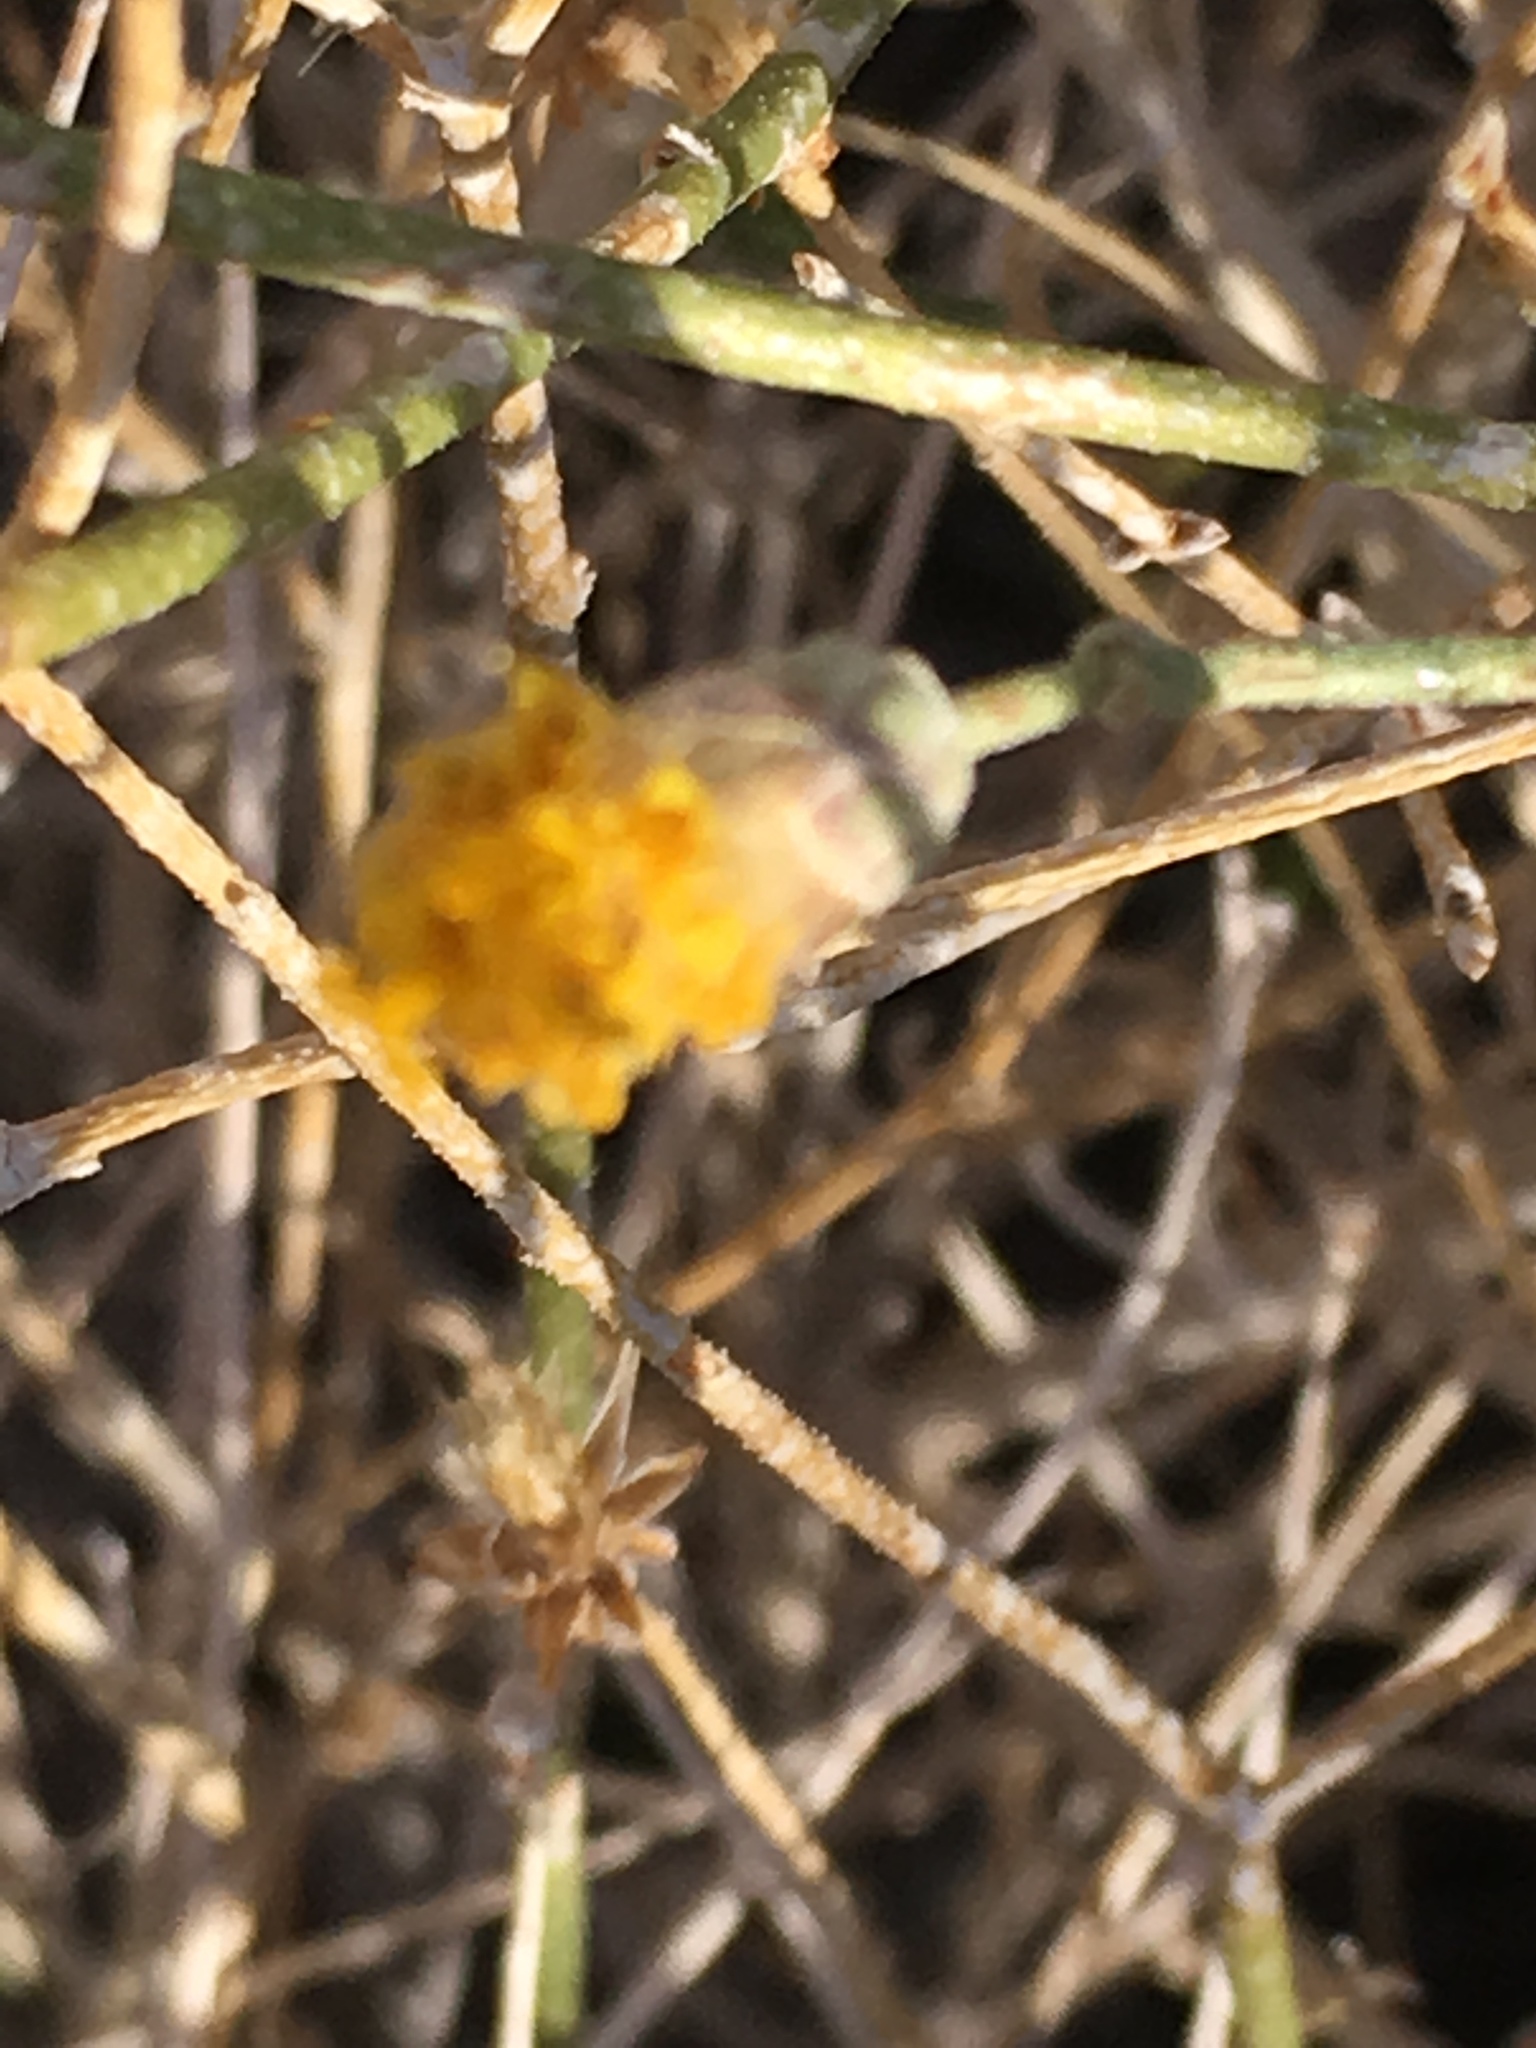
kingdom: Plantae
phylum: Tracheophyta
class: Magnoliopsida
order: Asterales
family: Asteraceae
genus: Bebbia
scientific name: Bebbia juncea
